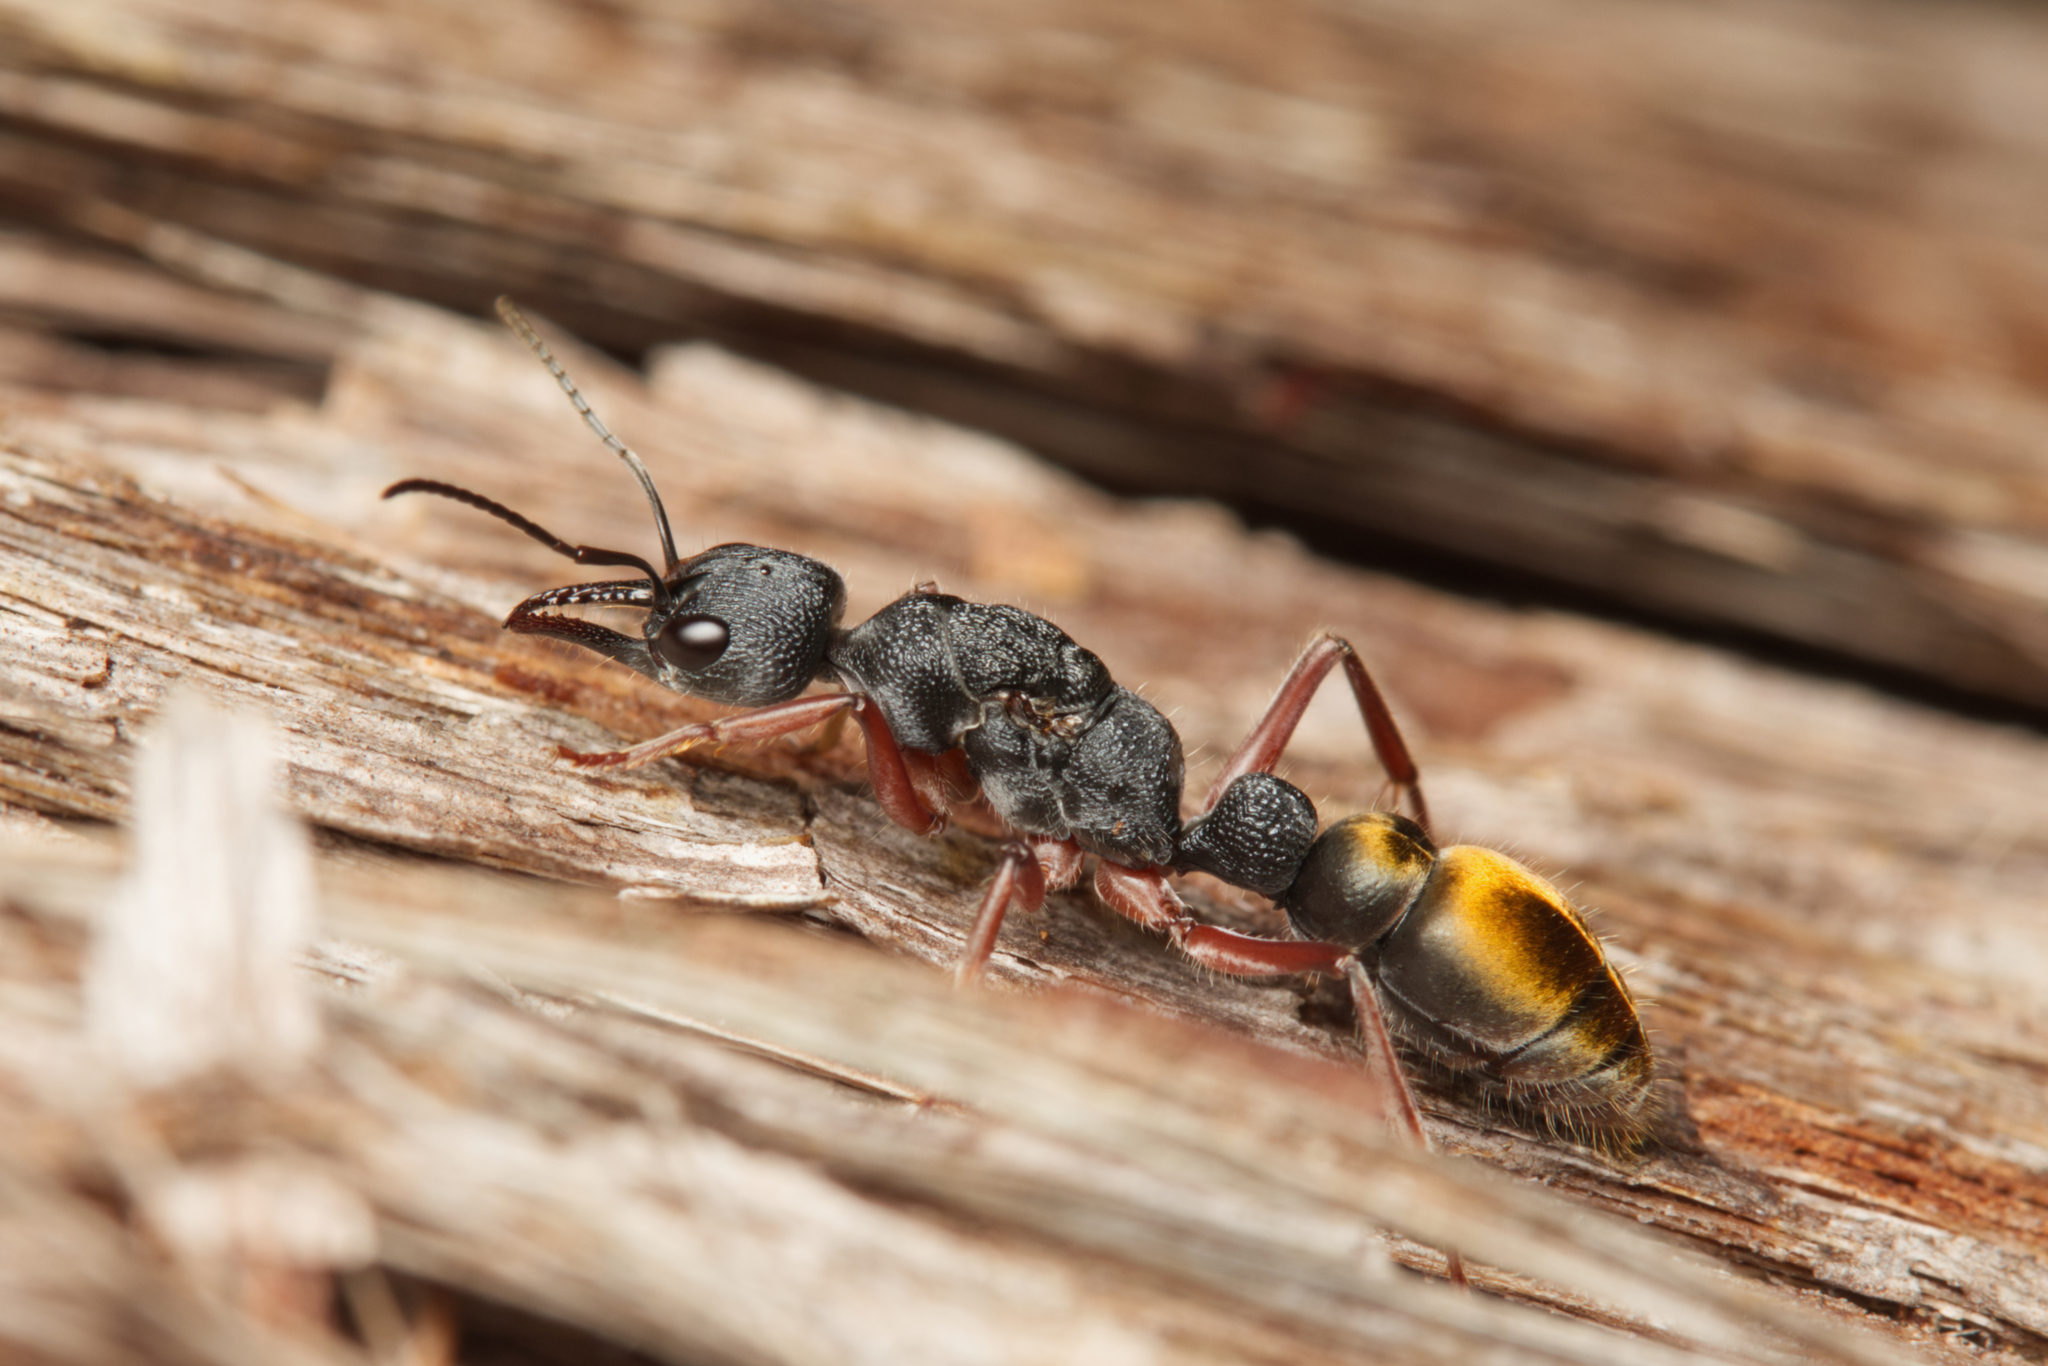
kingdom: Animalia
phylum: Arthropoda
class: Insecta
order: Hymenoptera
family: Formicidae
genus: Myrmecia
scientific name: Myrmecia fulviculis
